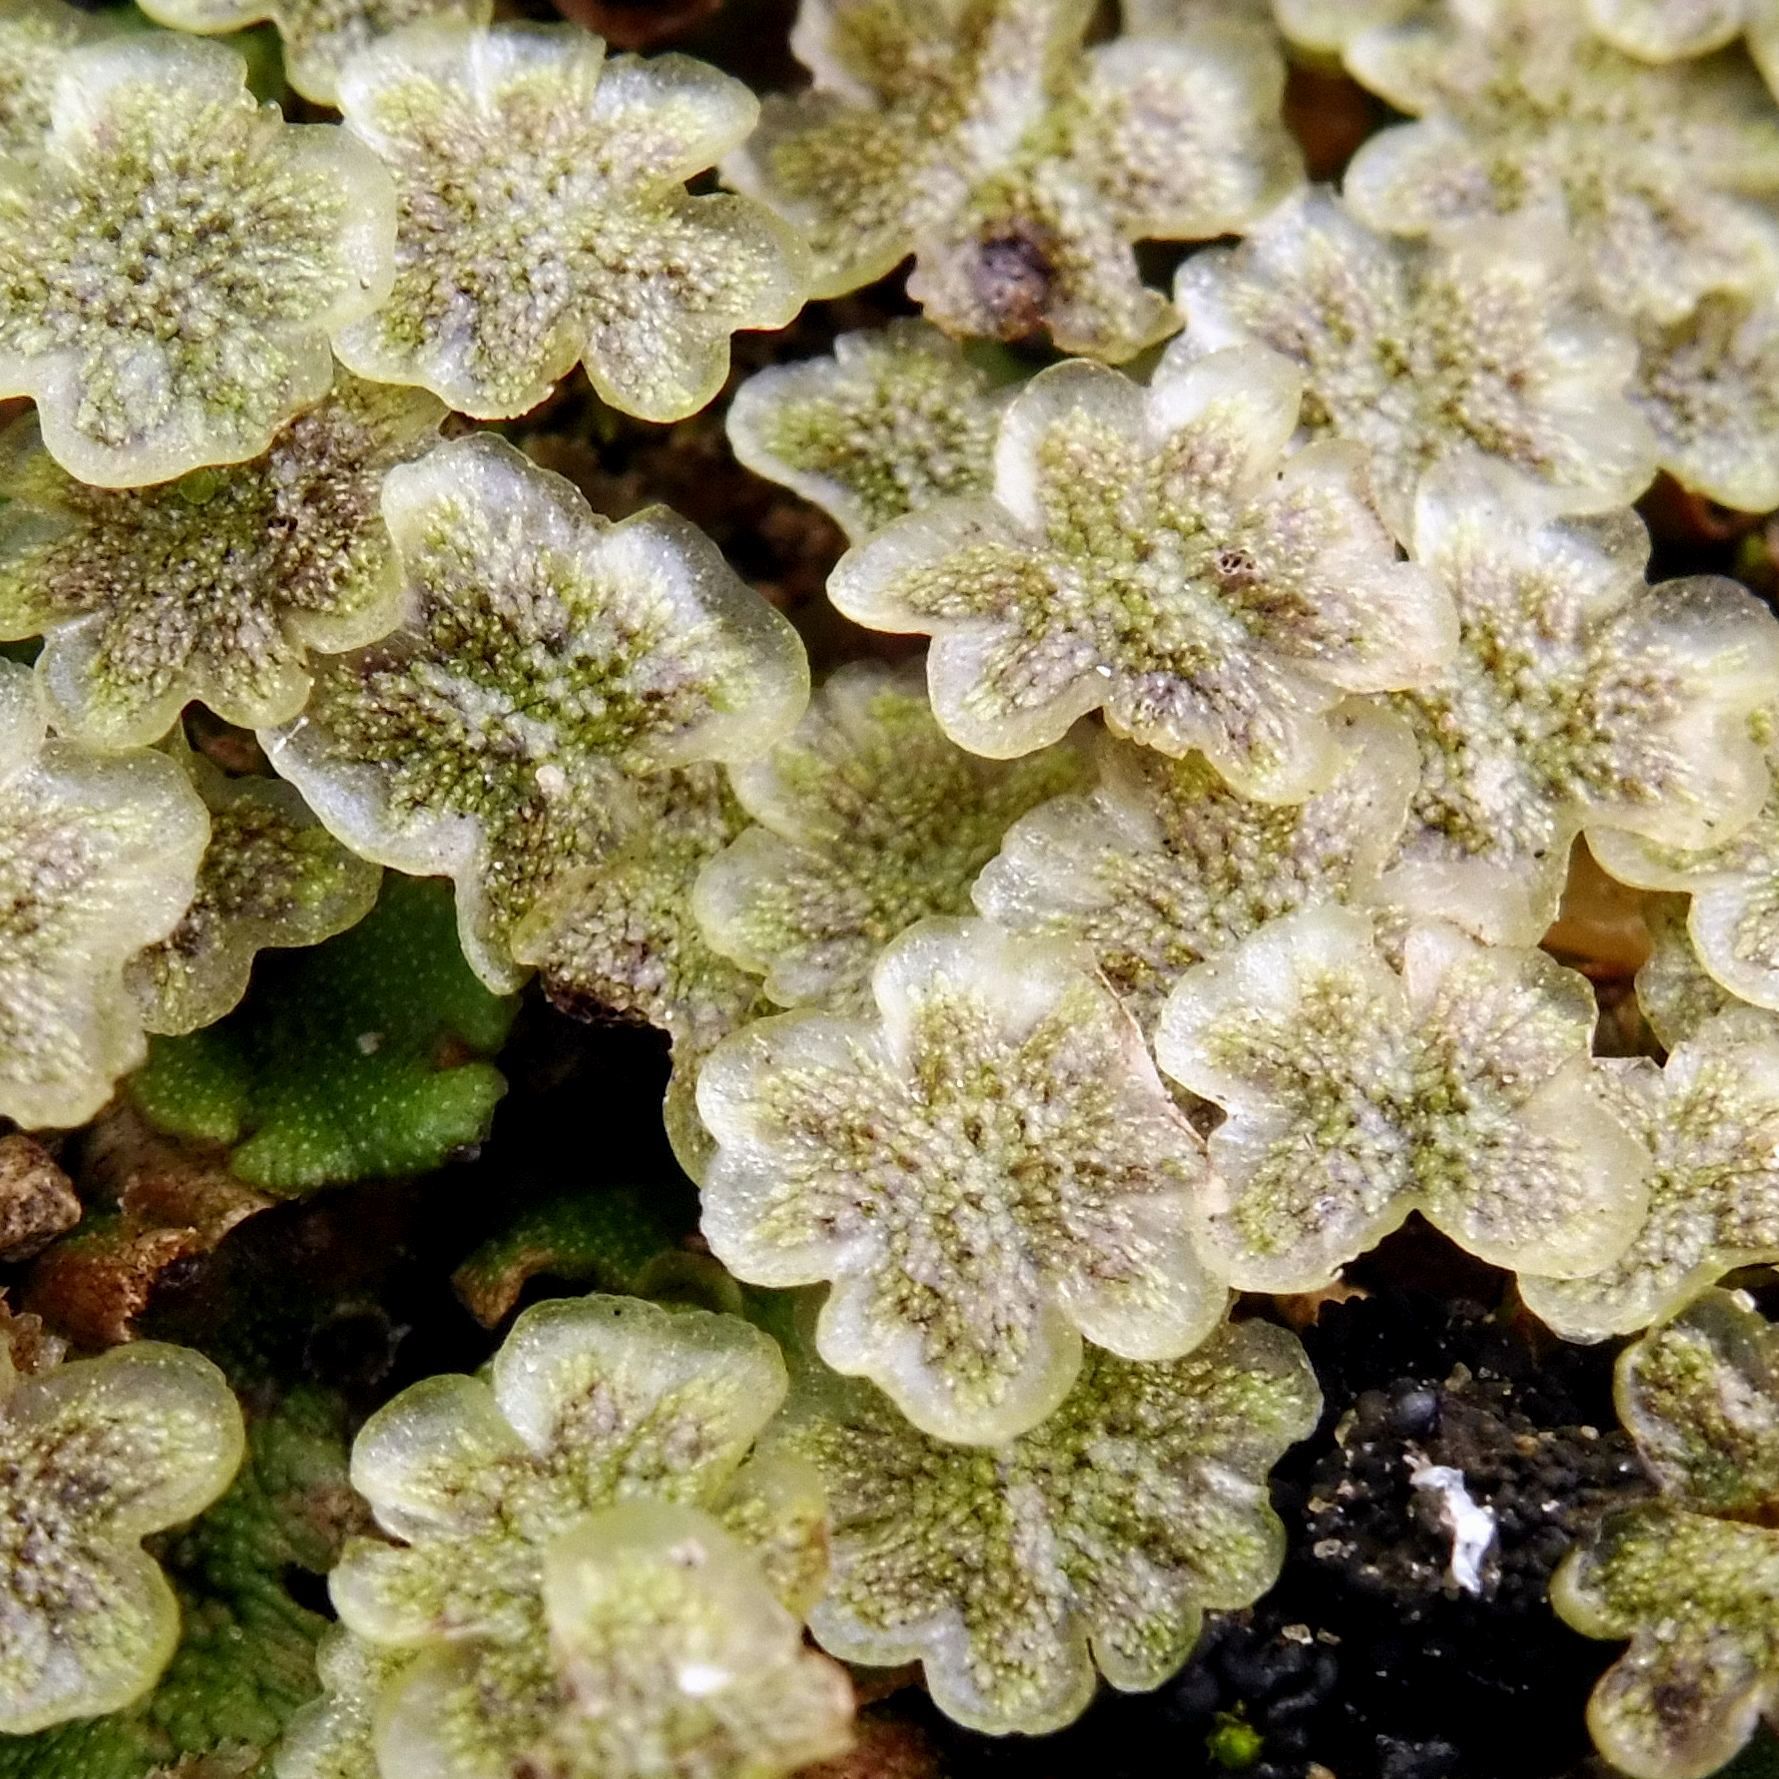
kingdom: Plantae
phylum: Marchantiophyta
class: Marchantiopsida
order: Marchantiales
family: Marchantiaceae
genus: Marchantia
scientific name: Marchantia polymorpha
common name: Common liverwort
